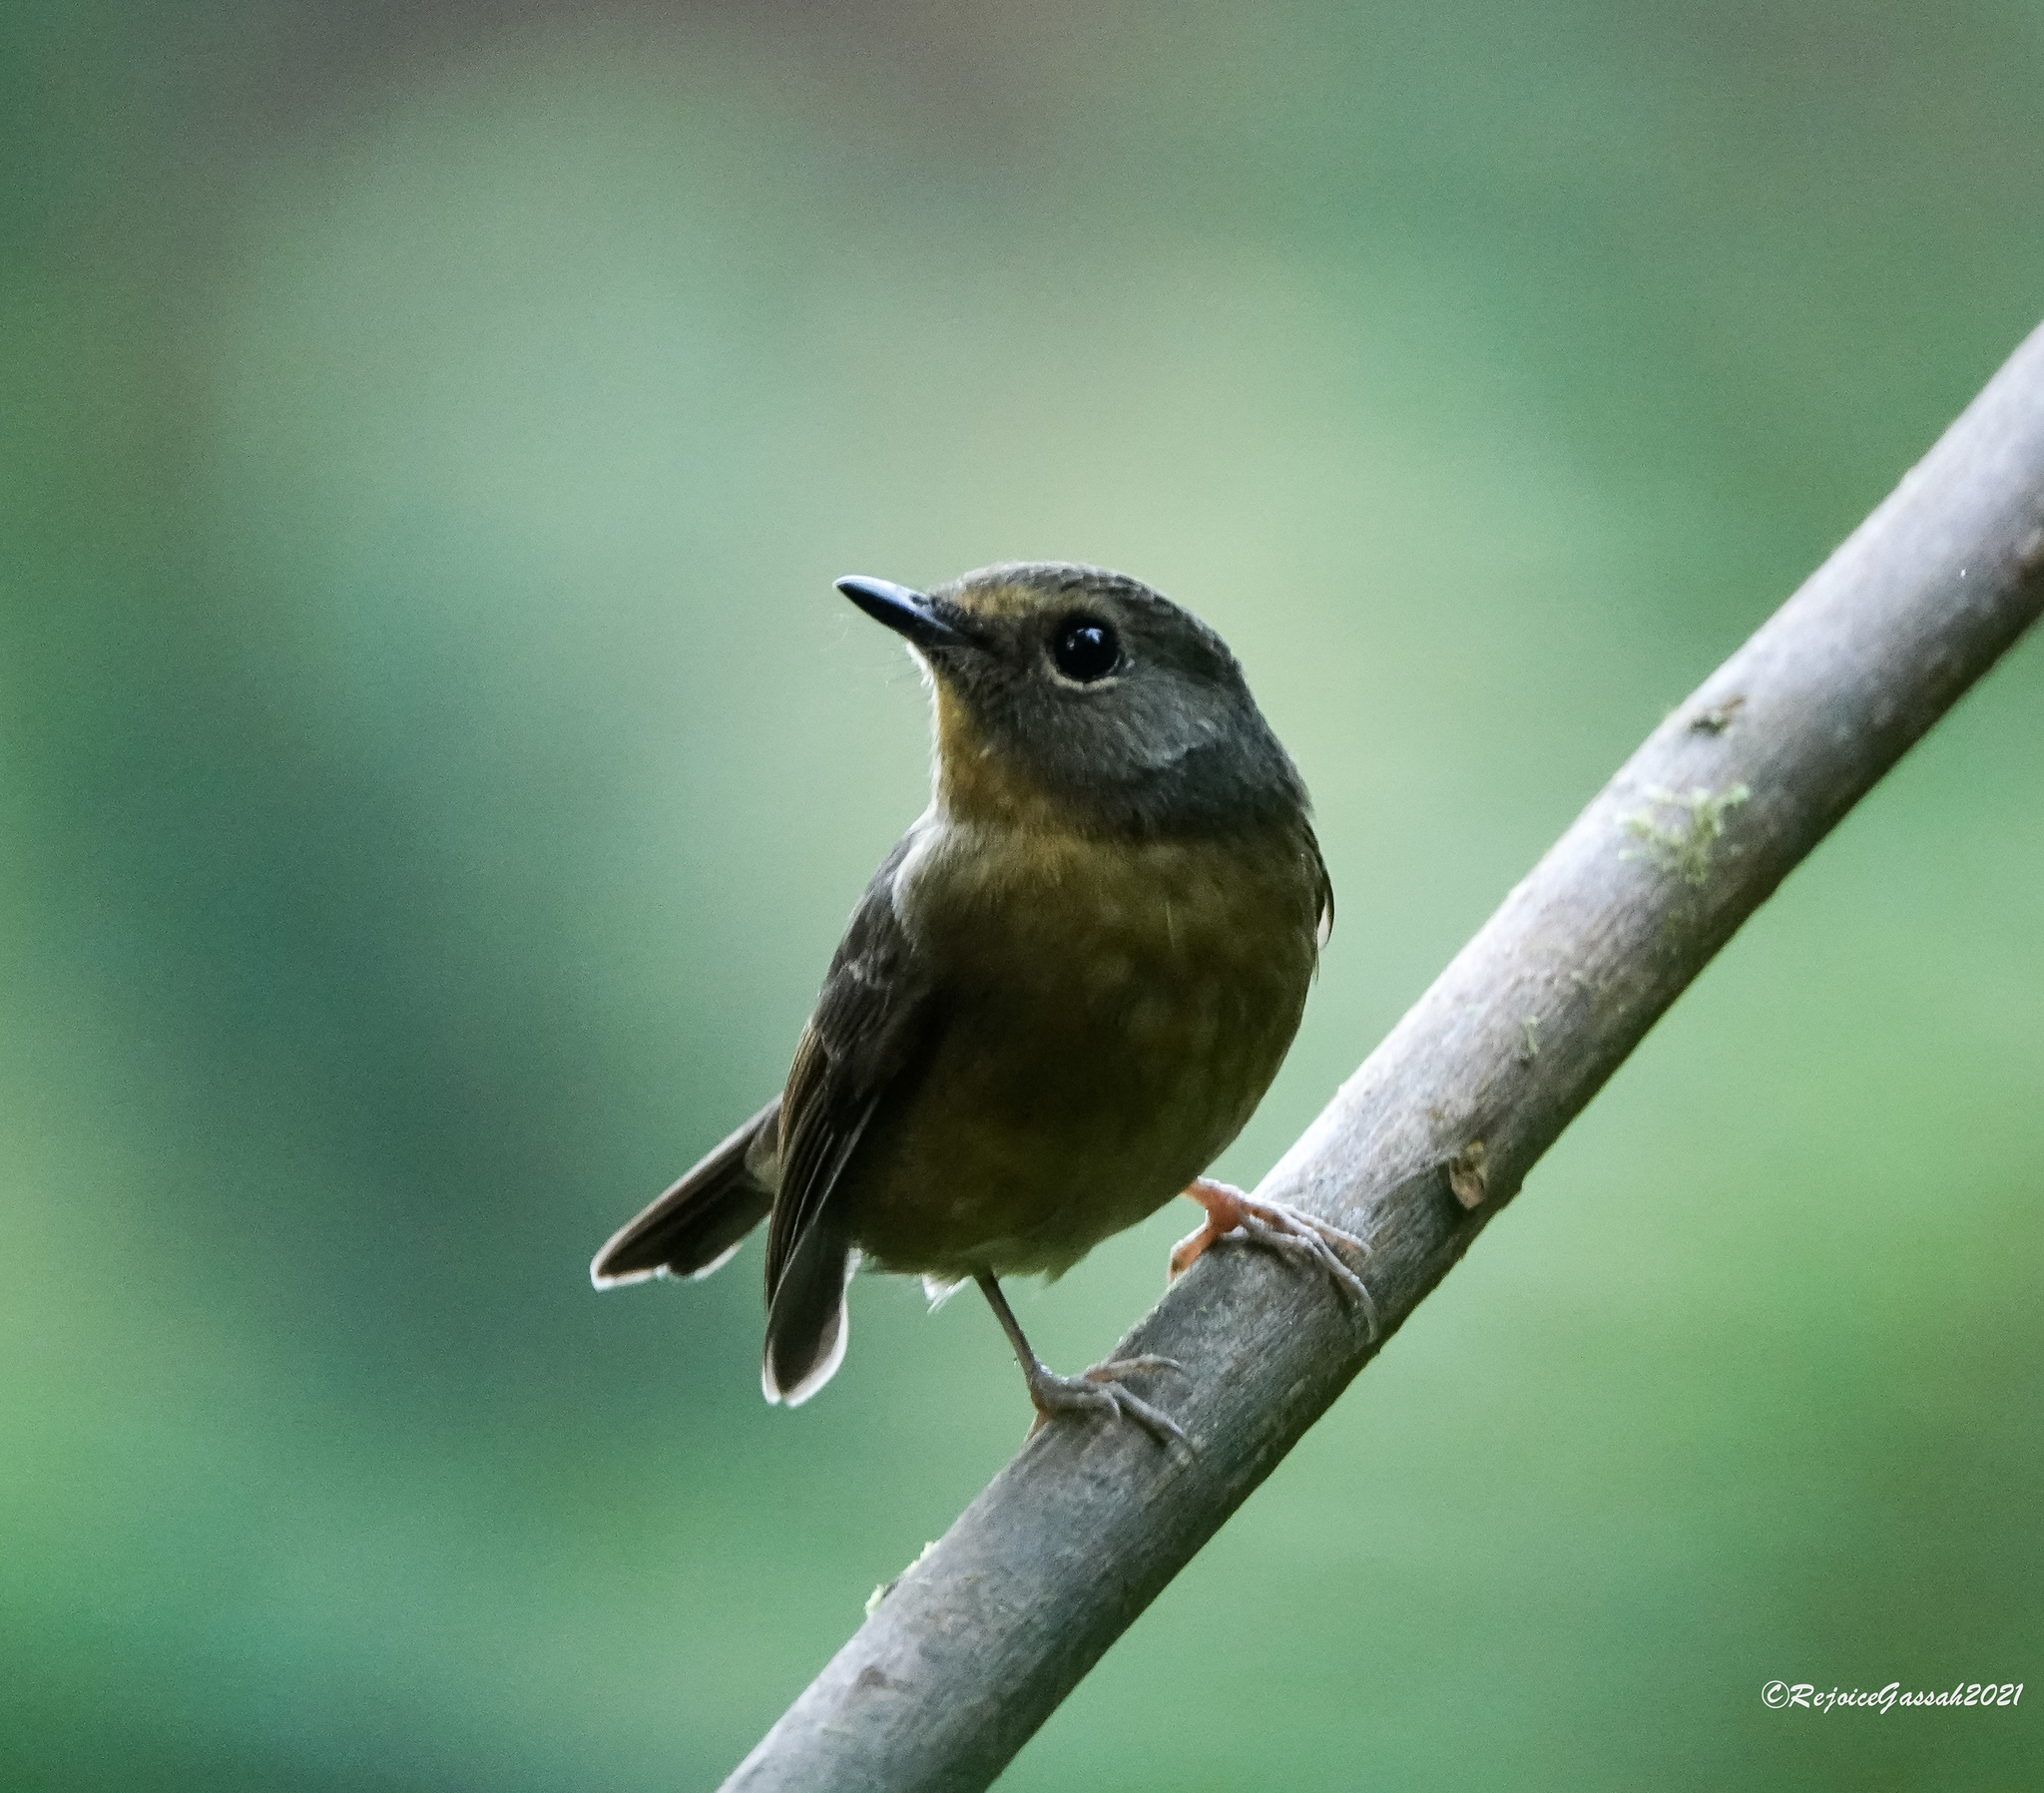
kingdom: Animalia
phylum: Chordata
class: Aves
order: Passeriformes
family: Muscicapidae
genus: Ficedula
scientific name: Ficedula hyperythra
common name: Snowy-browed flycatcher
